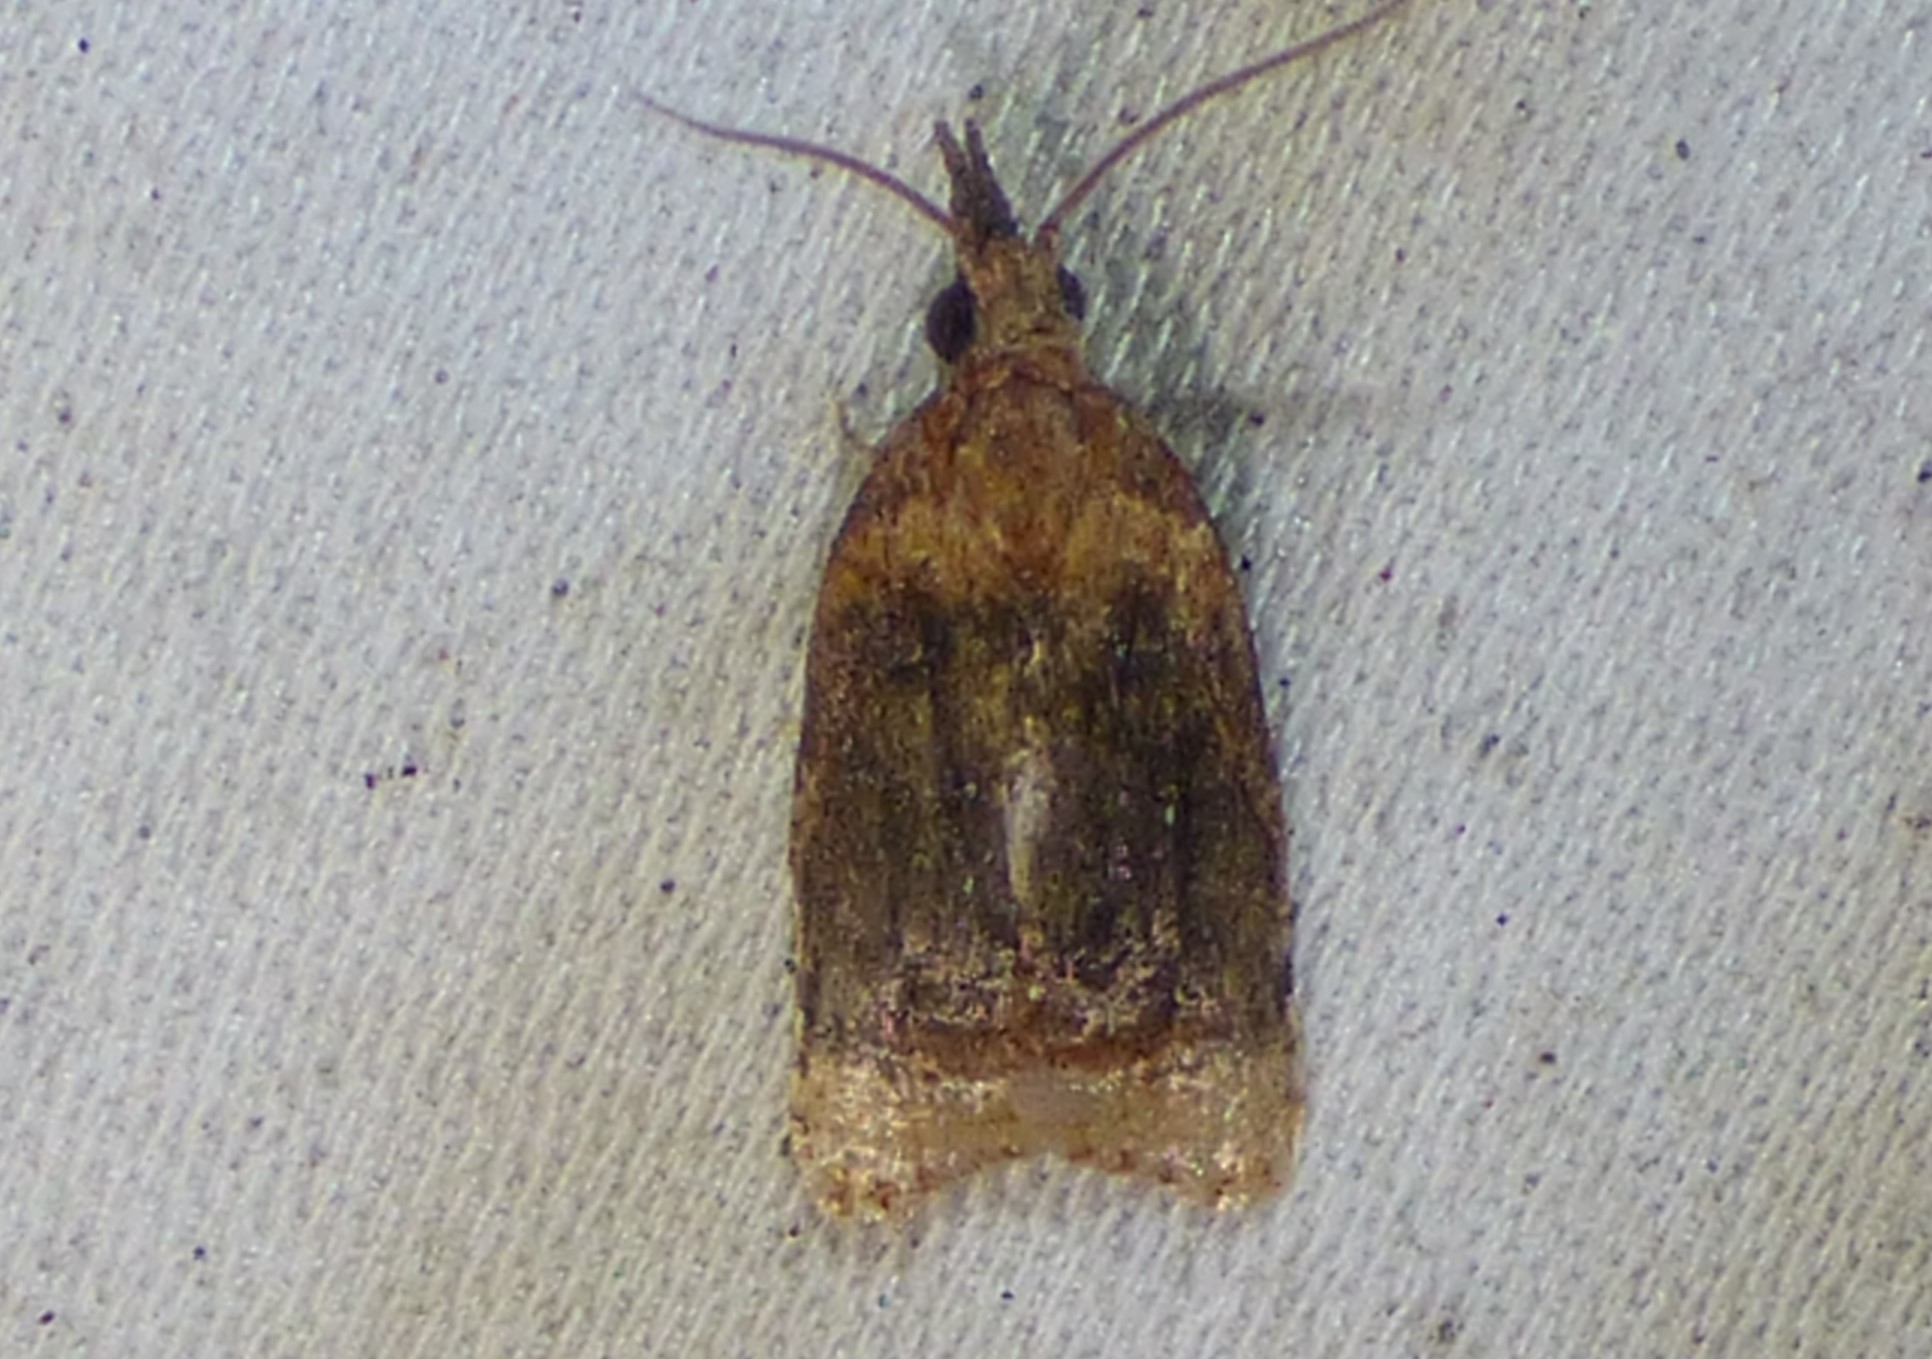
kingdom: Animalia
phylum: Arthropoda
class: Insecta
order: Lepidoptera
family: Tortricidae
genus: Platynota
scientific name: Platynota flavedana
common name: Black-shaded platynota moth
